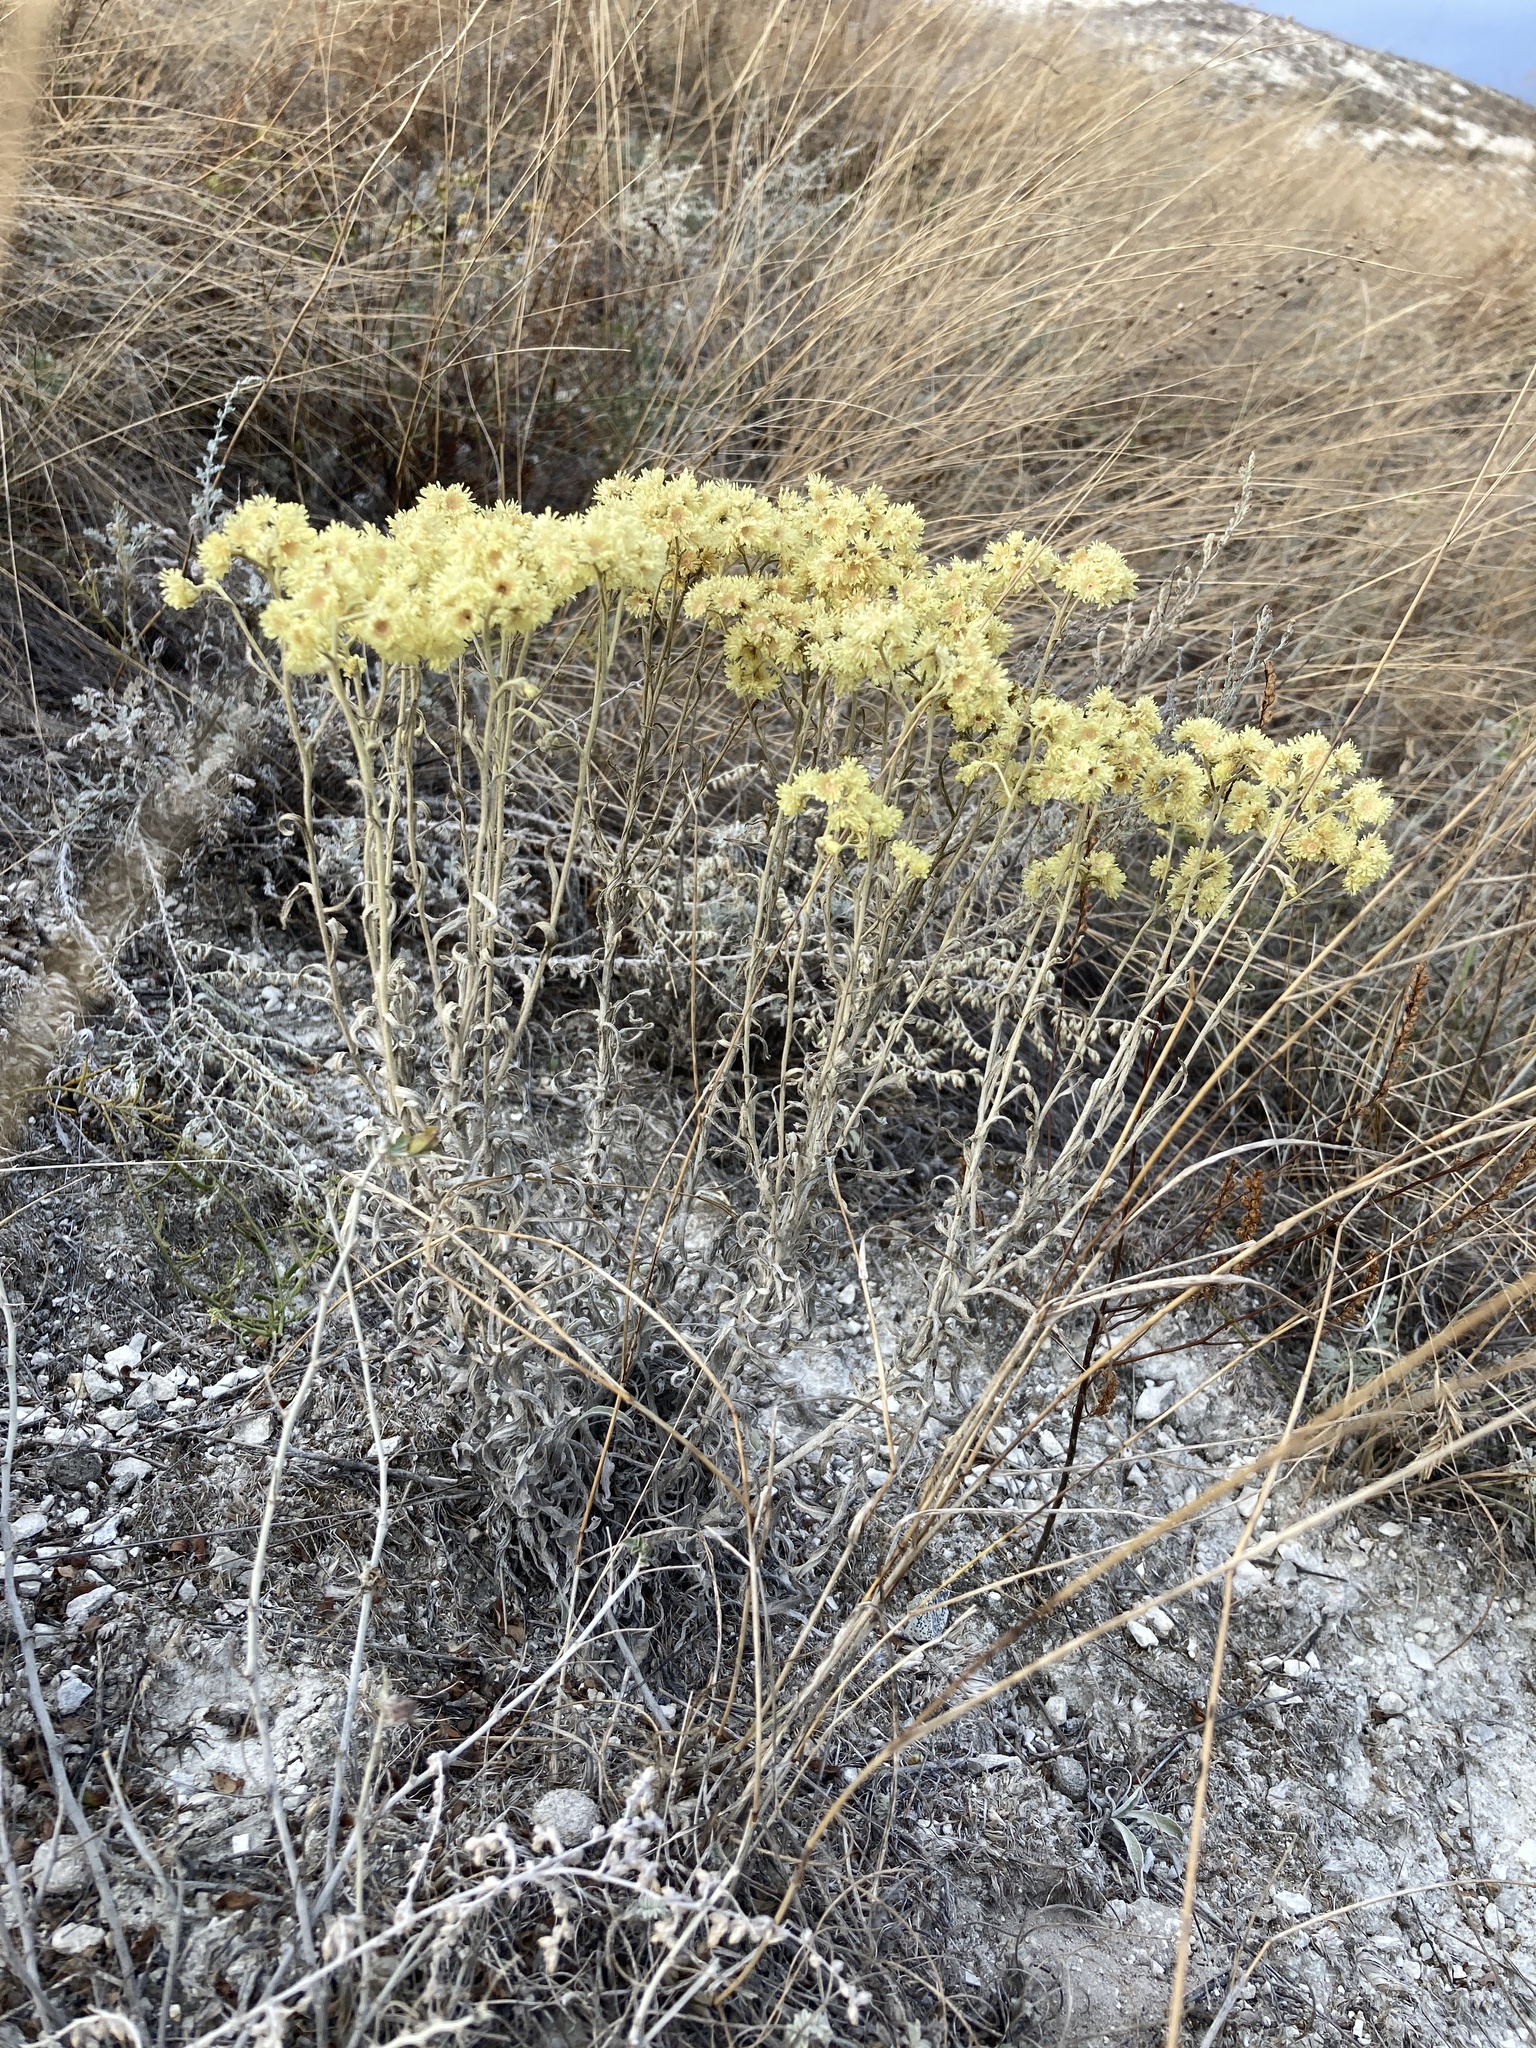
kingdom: Plantae
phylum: Tracheophyta
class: Magnoliopsida
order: Asterales
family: Asteraceae
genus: Helichrysum
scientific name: Helichrysum arenarium
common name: Strawflower
